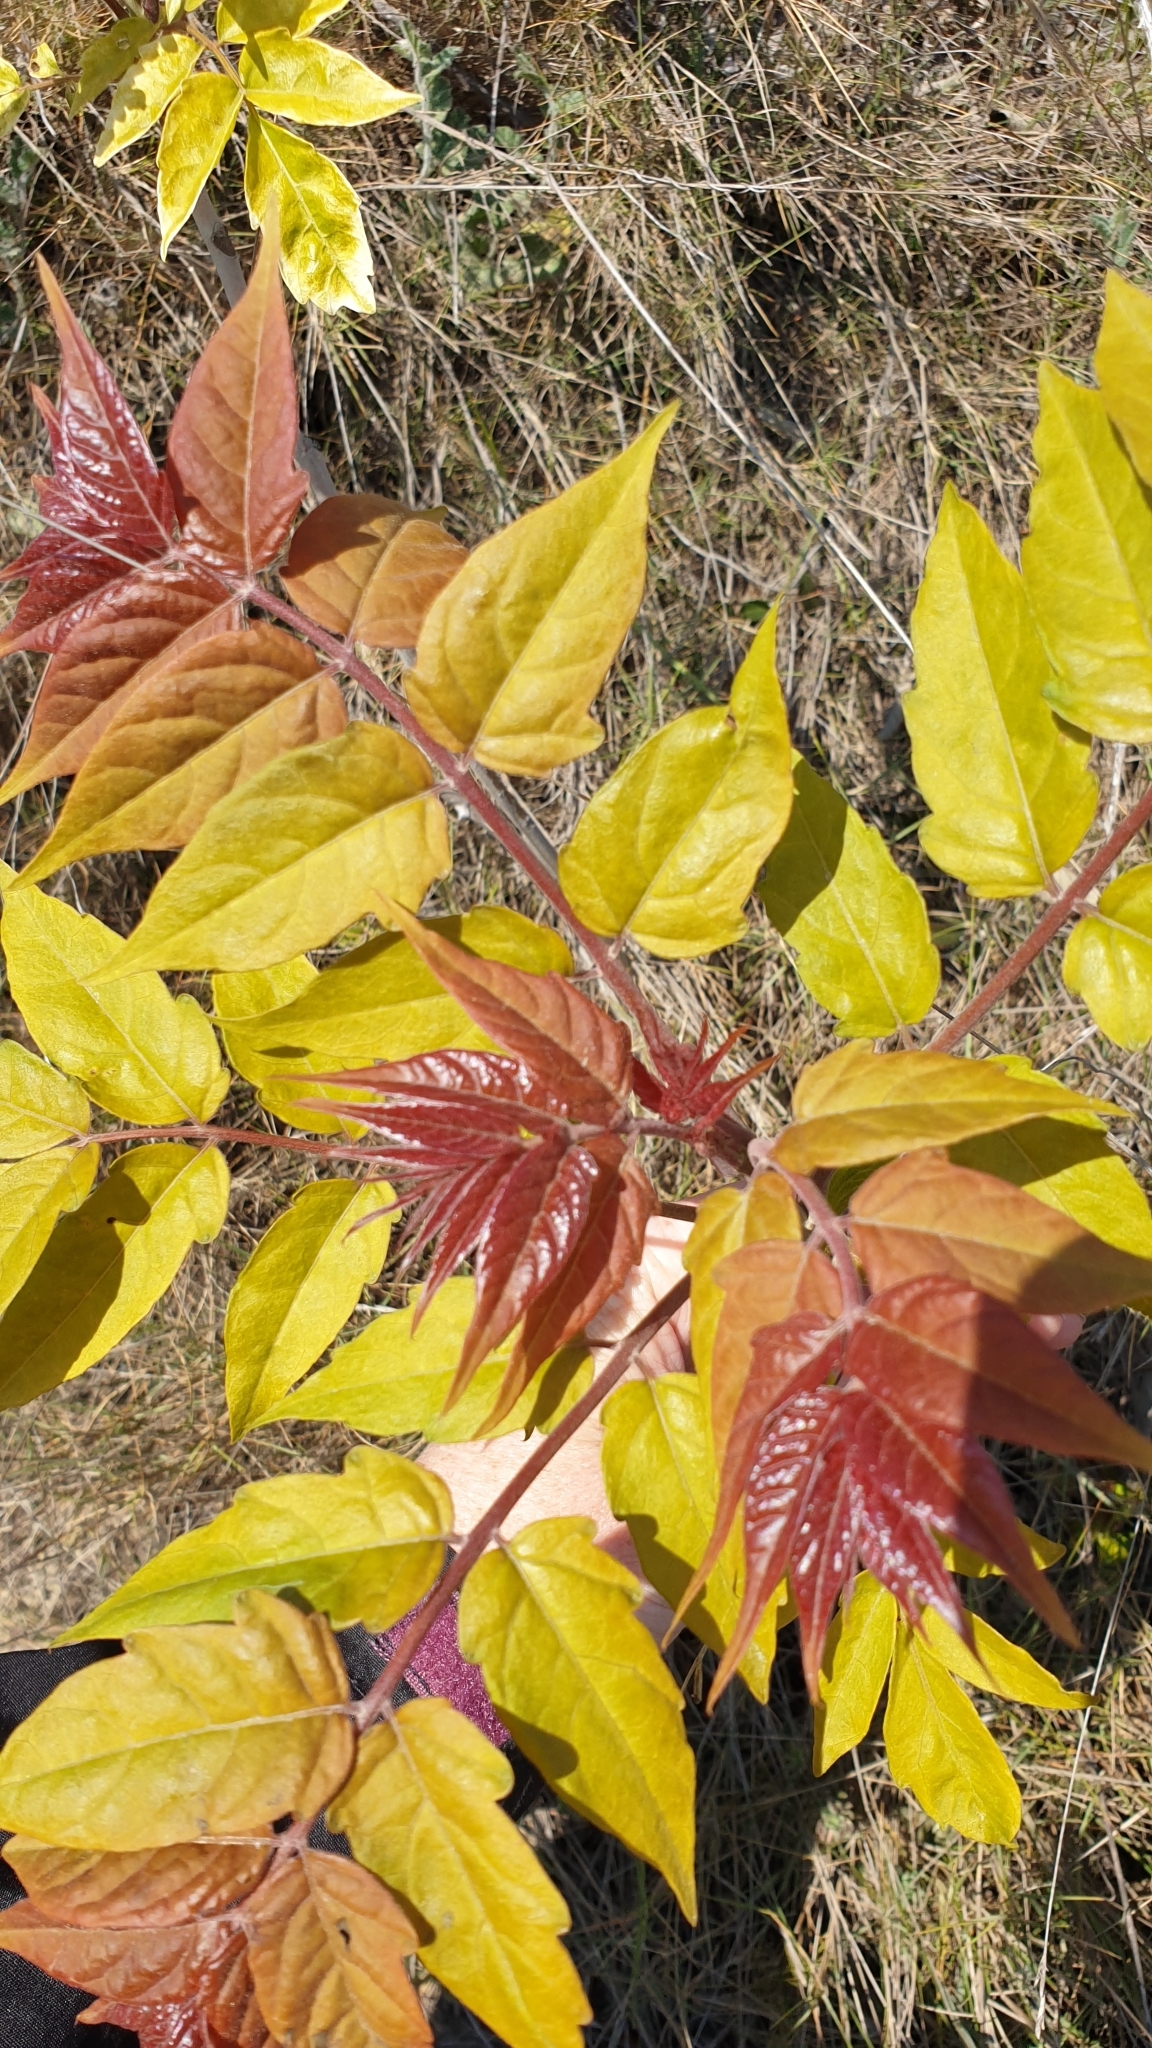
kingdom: Plantae
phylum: Tracheophyta
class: Magnoliopsida
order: Sapindales
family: Simaroubaceae
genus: Ailanthus
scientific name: Ailanthus altissima
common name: Tree-of-heaven
